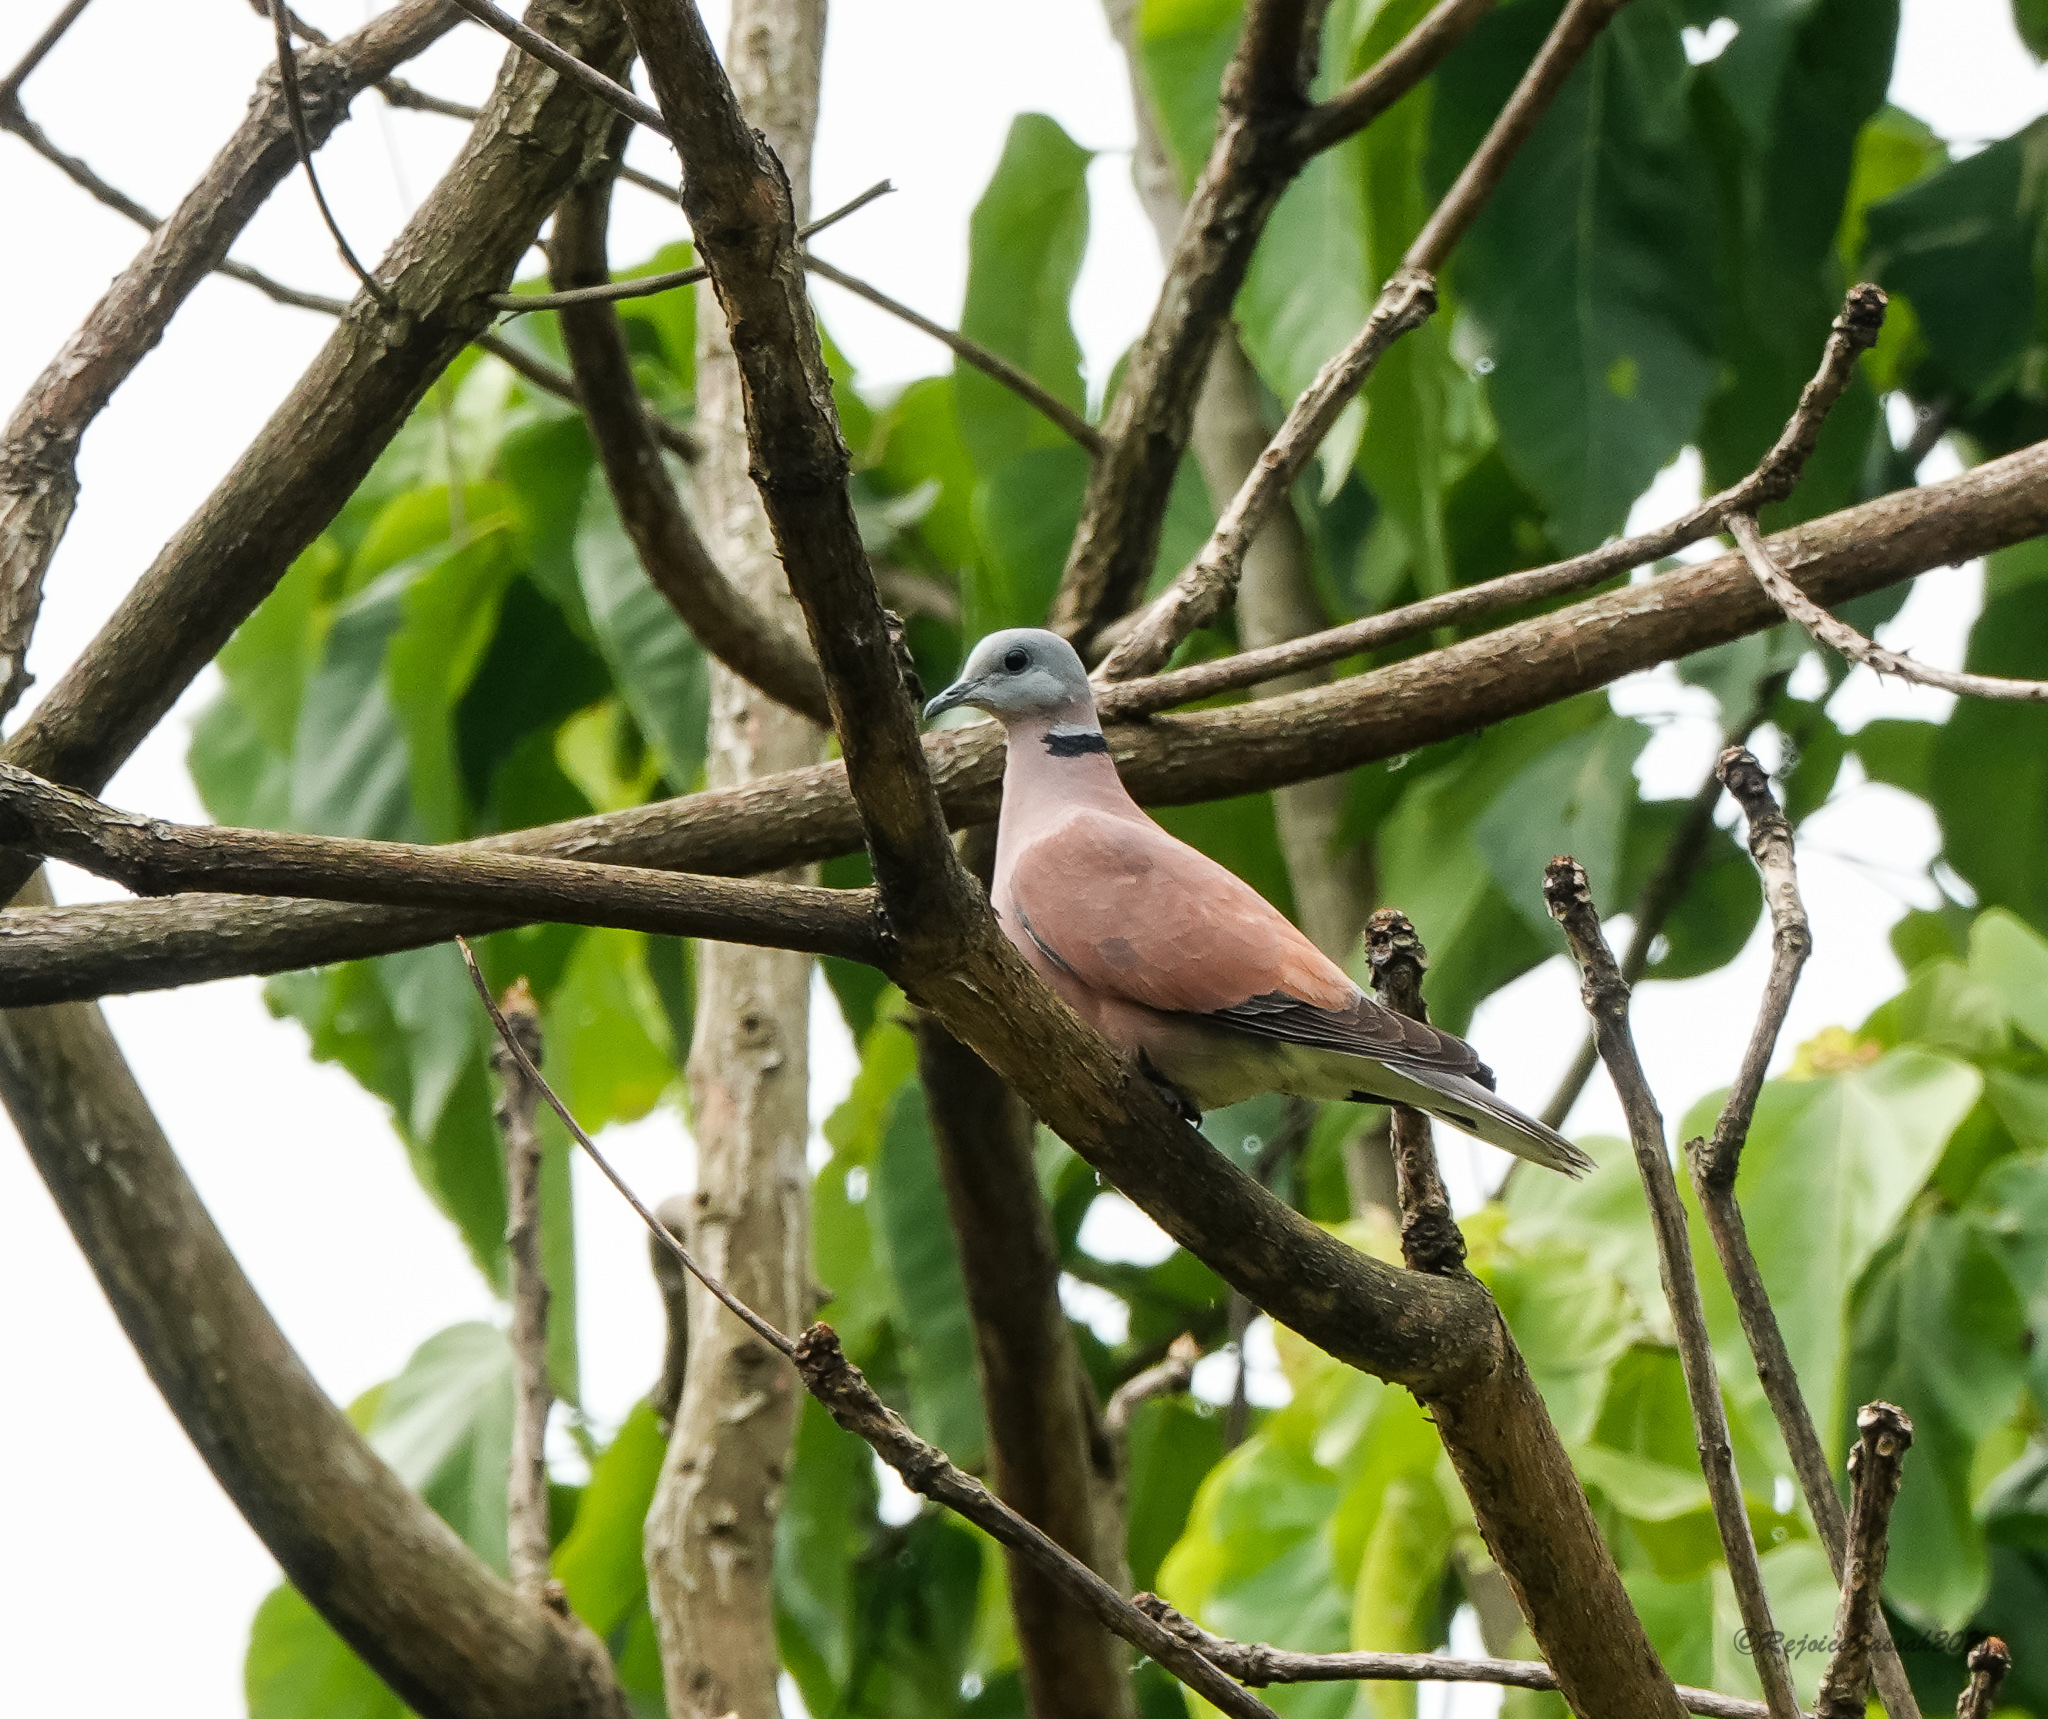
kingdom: Animalia
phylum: Chordata
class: Aves
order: Columbiformes
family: Columbidae
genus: Streptopelia
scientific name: Streptopelia tranquebarica
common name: Red turtle dove
